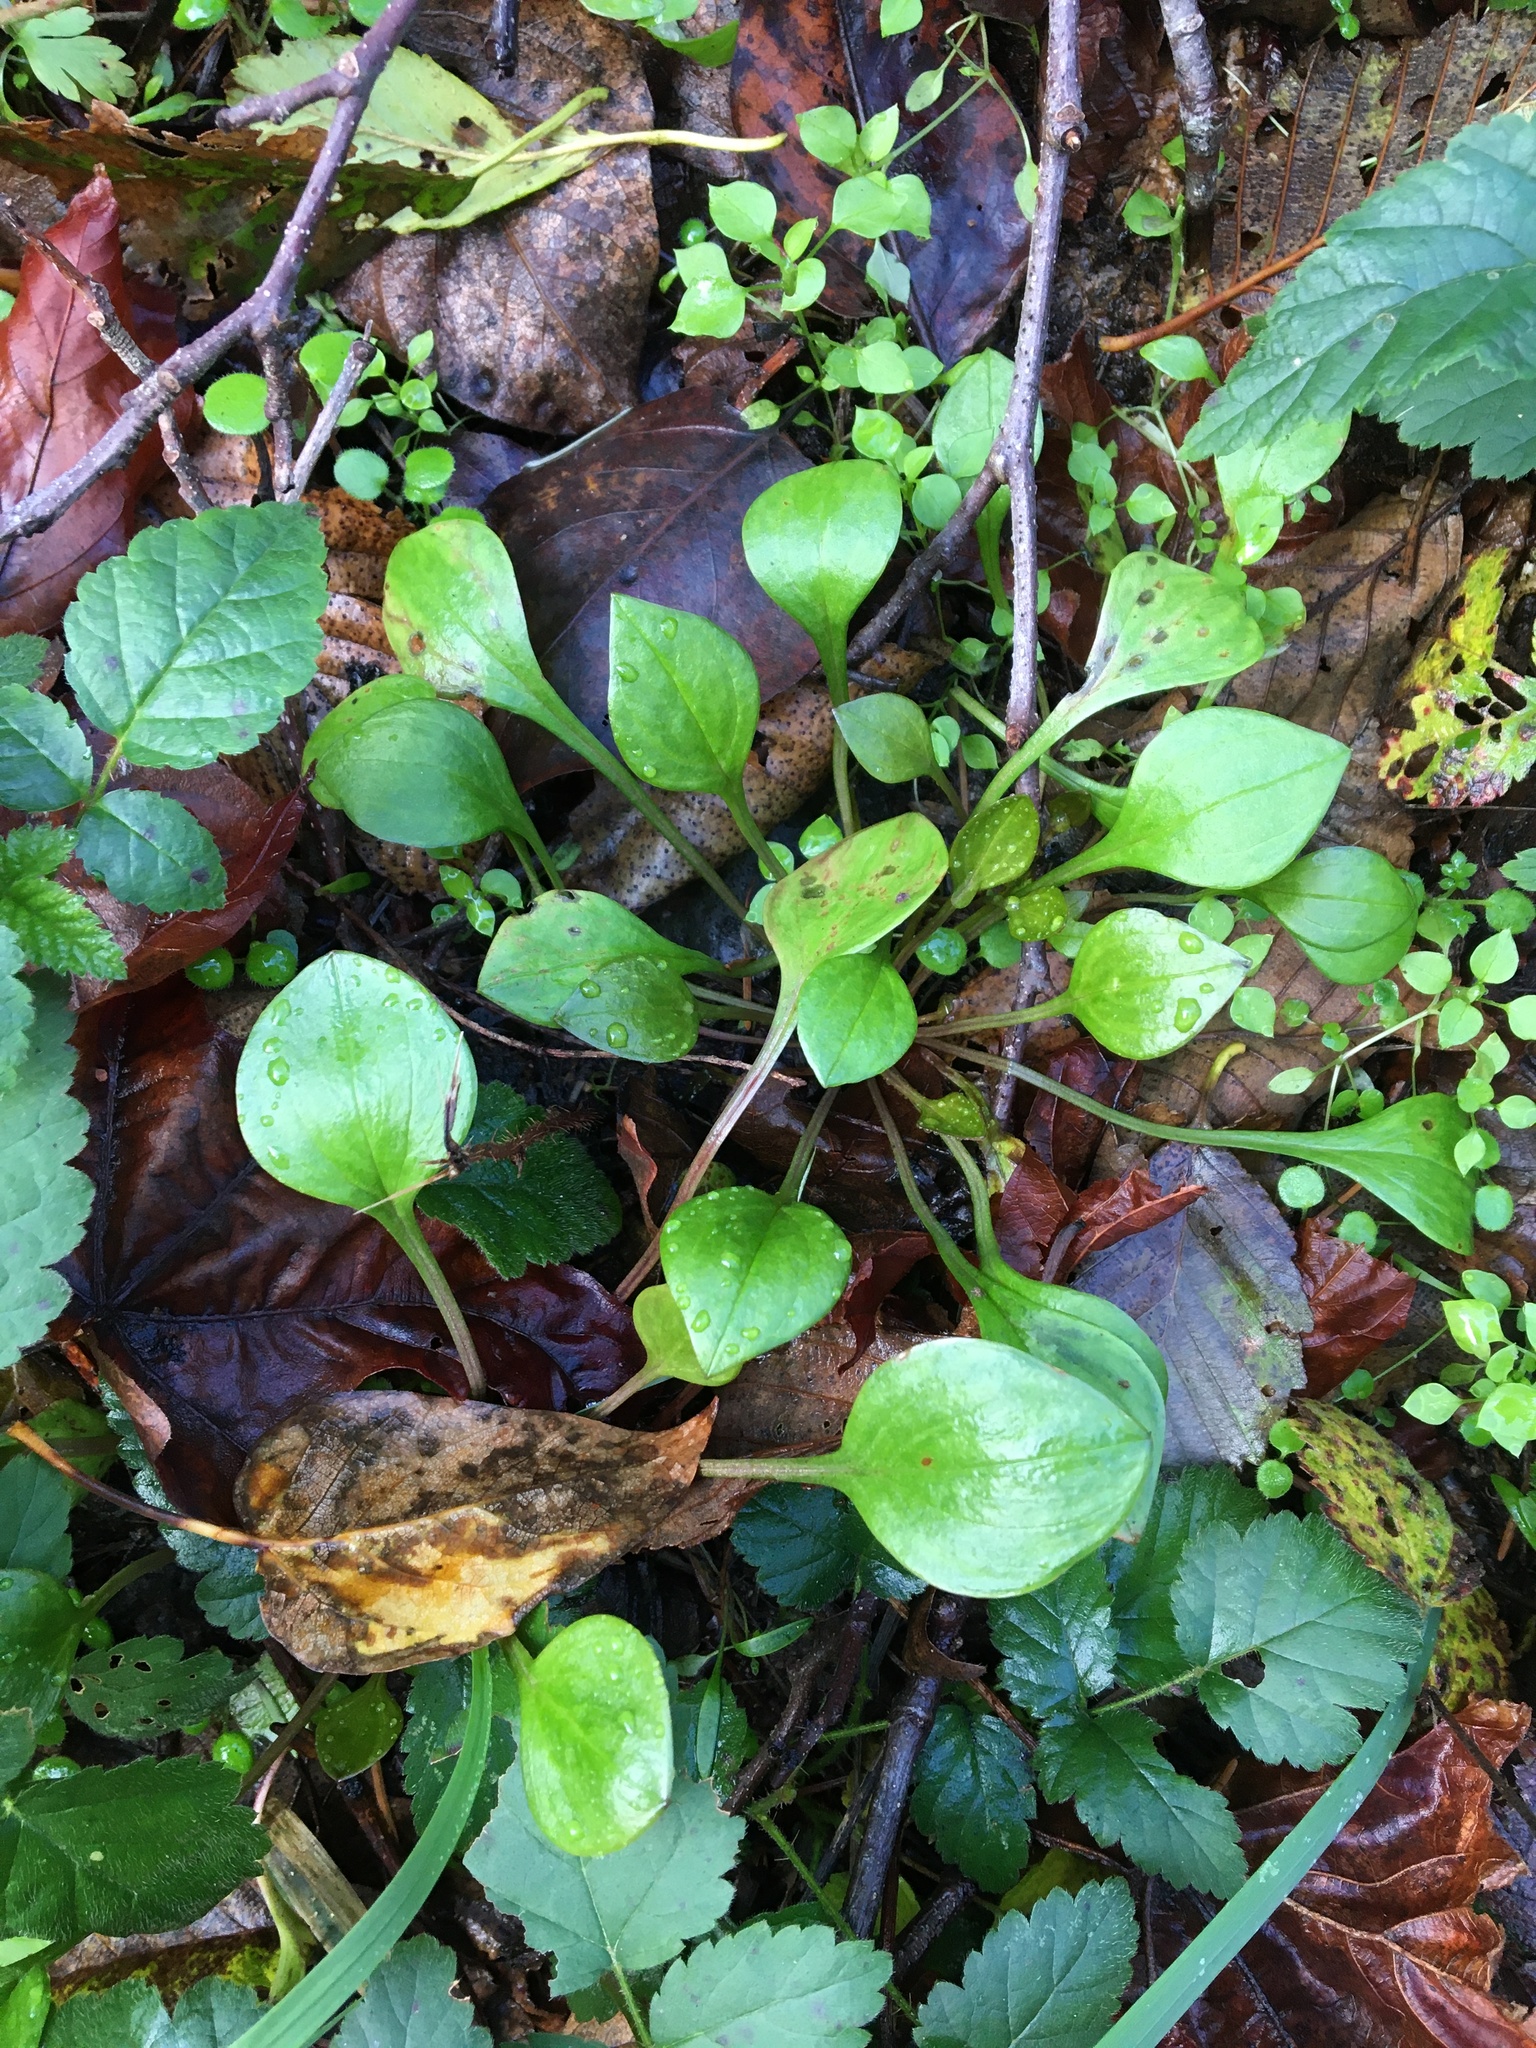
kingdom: Plantae
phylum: Tracheophyta
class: Magnoliopsida
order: Caryophyllales
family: Montiaceae
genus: Claytonia
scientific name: Claytonia sibirica
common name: Pink purslane
